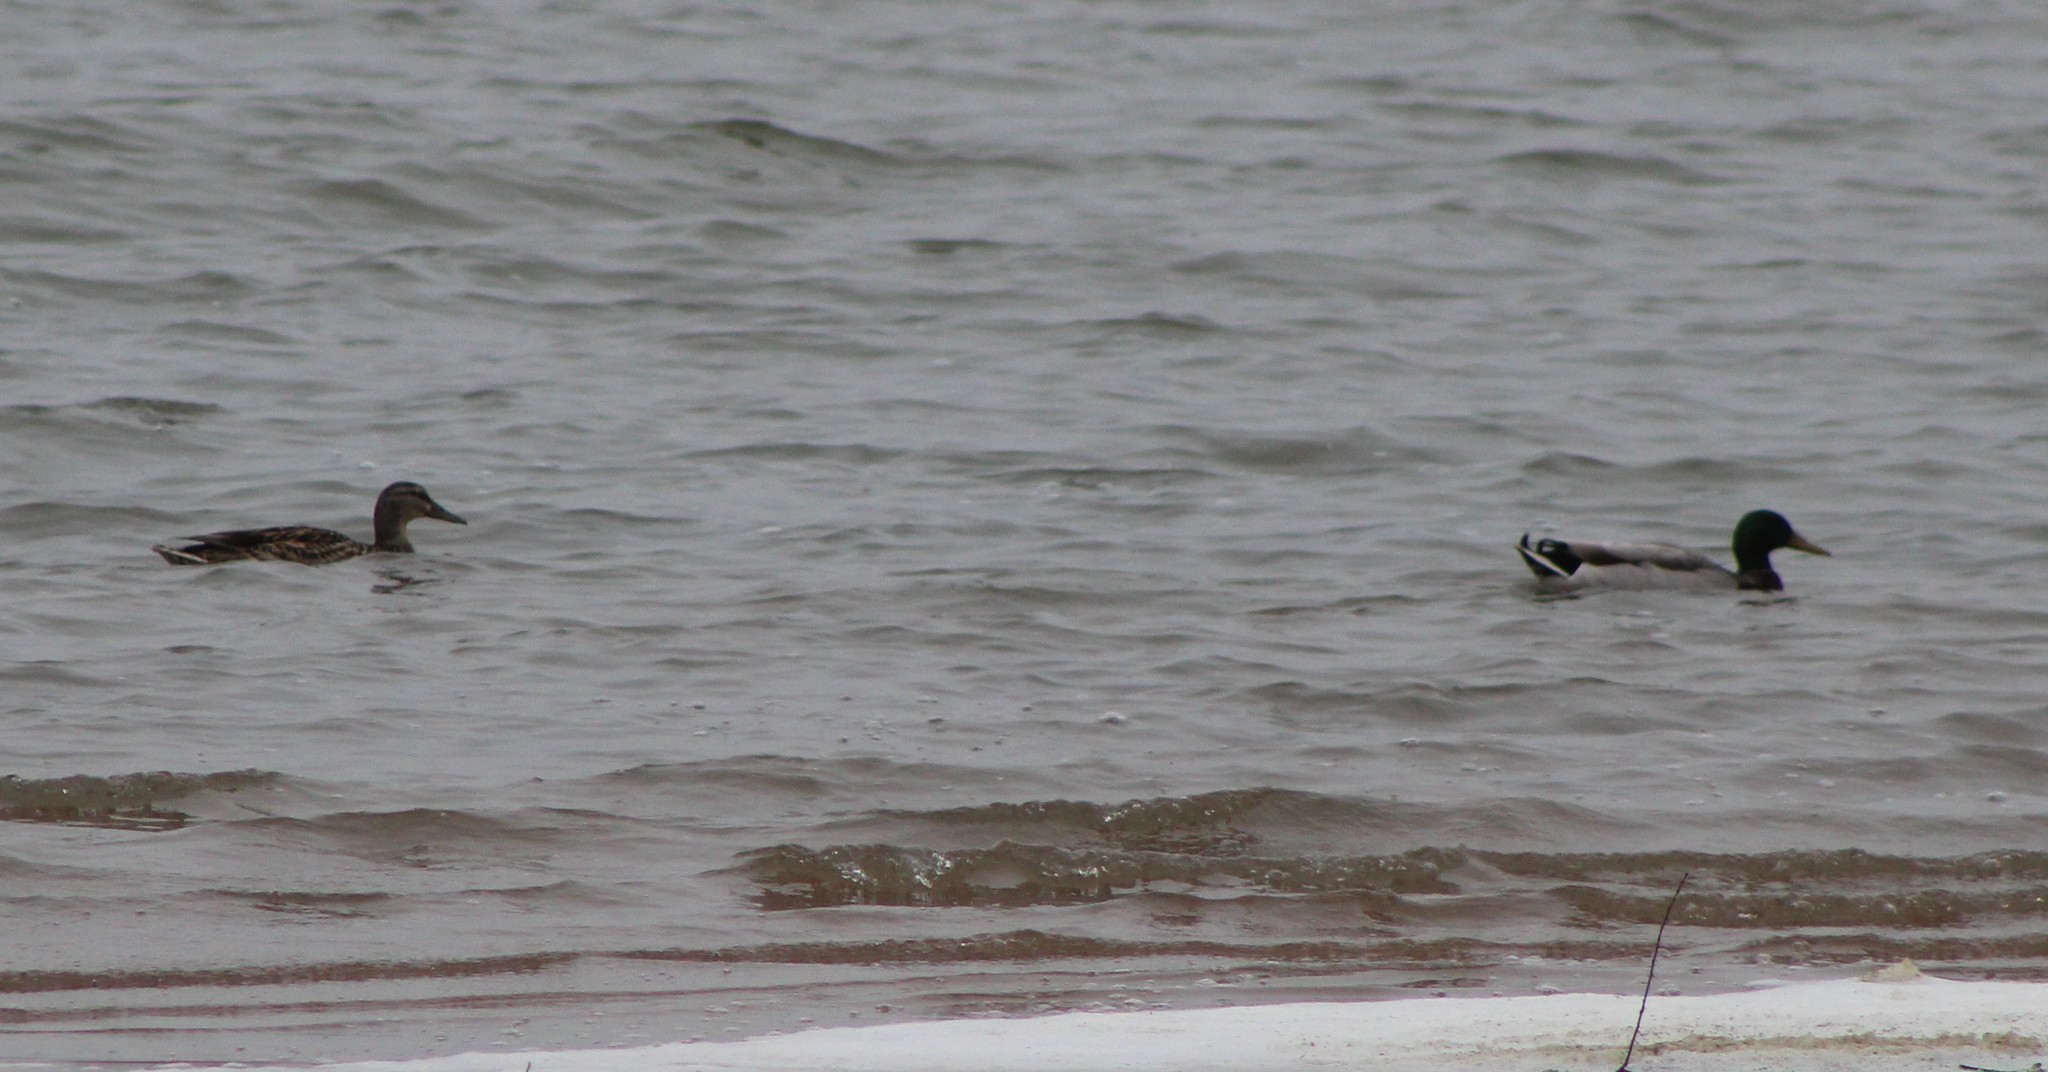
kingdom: Animalia
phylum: Chordata
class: Aves
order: Anseriformes
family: Anatidae
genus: Anas
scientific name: Anas platyrhynchos
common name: Mallard
